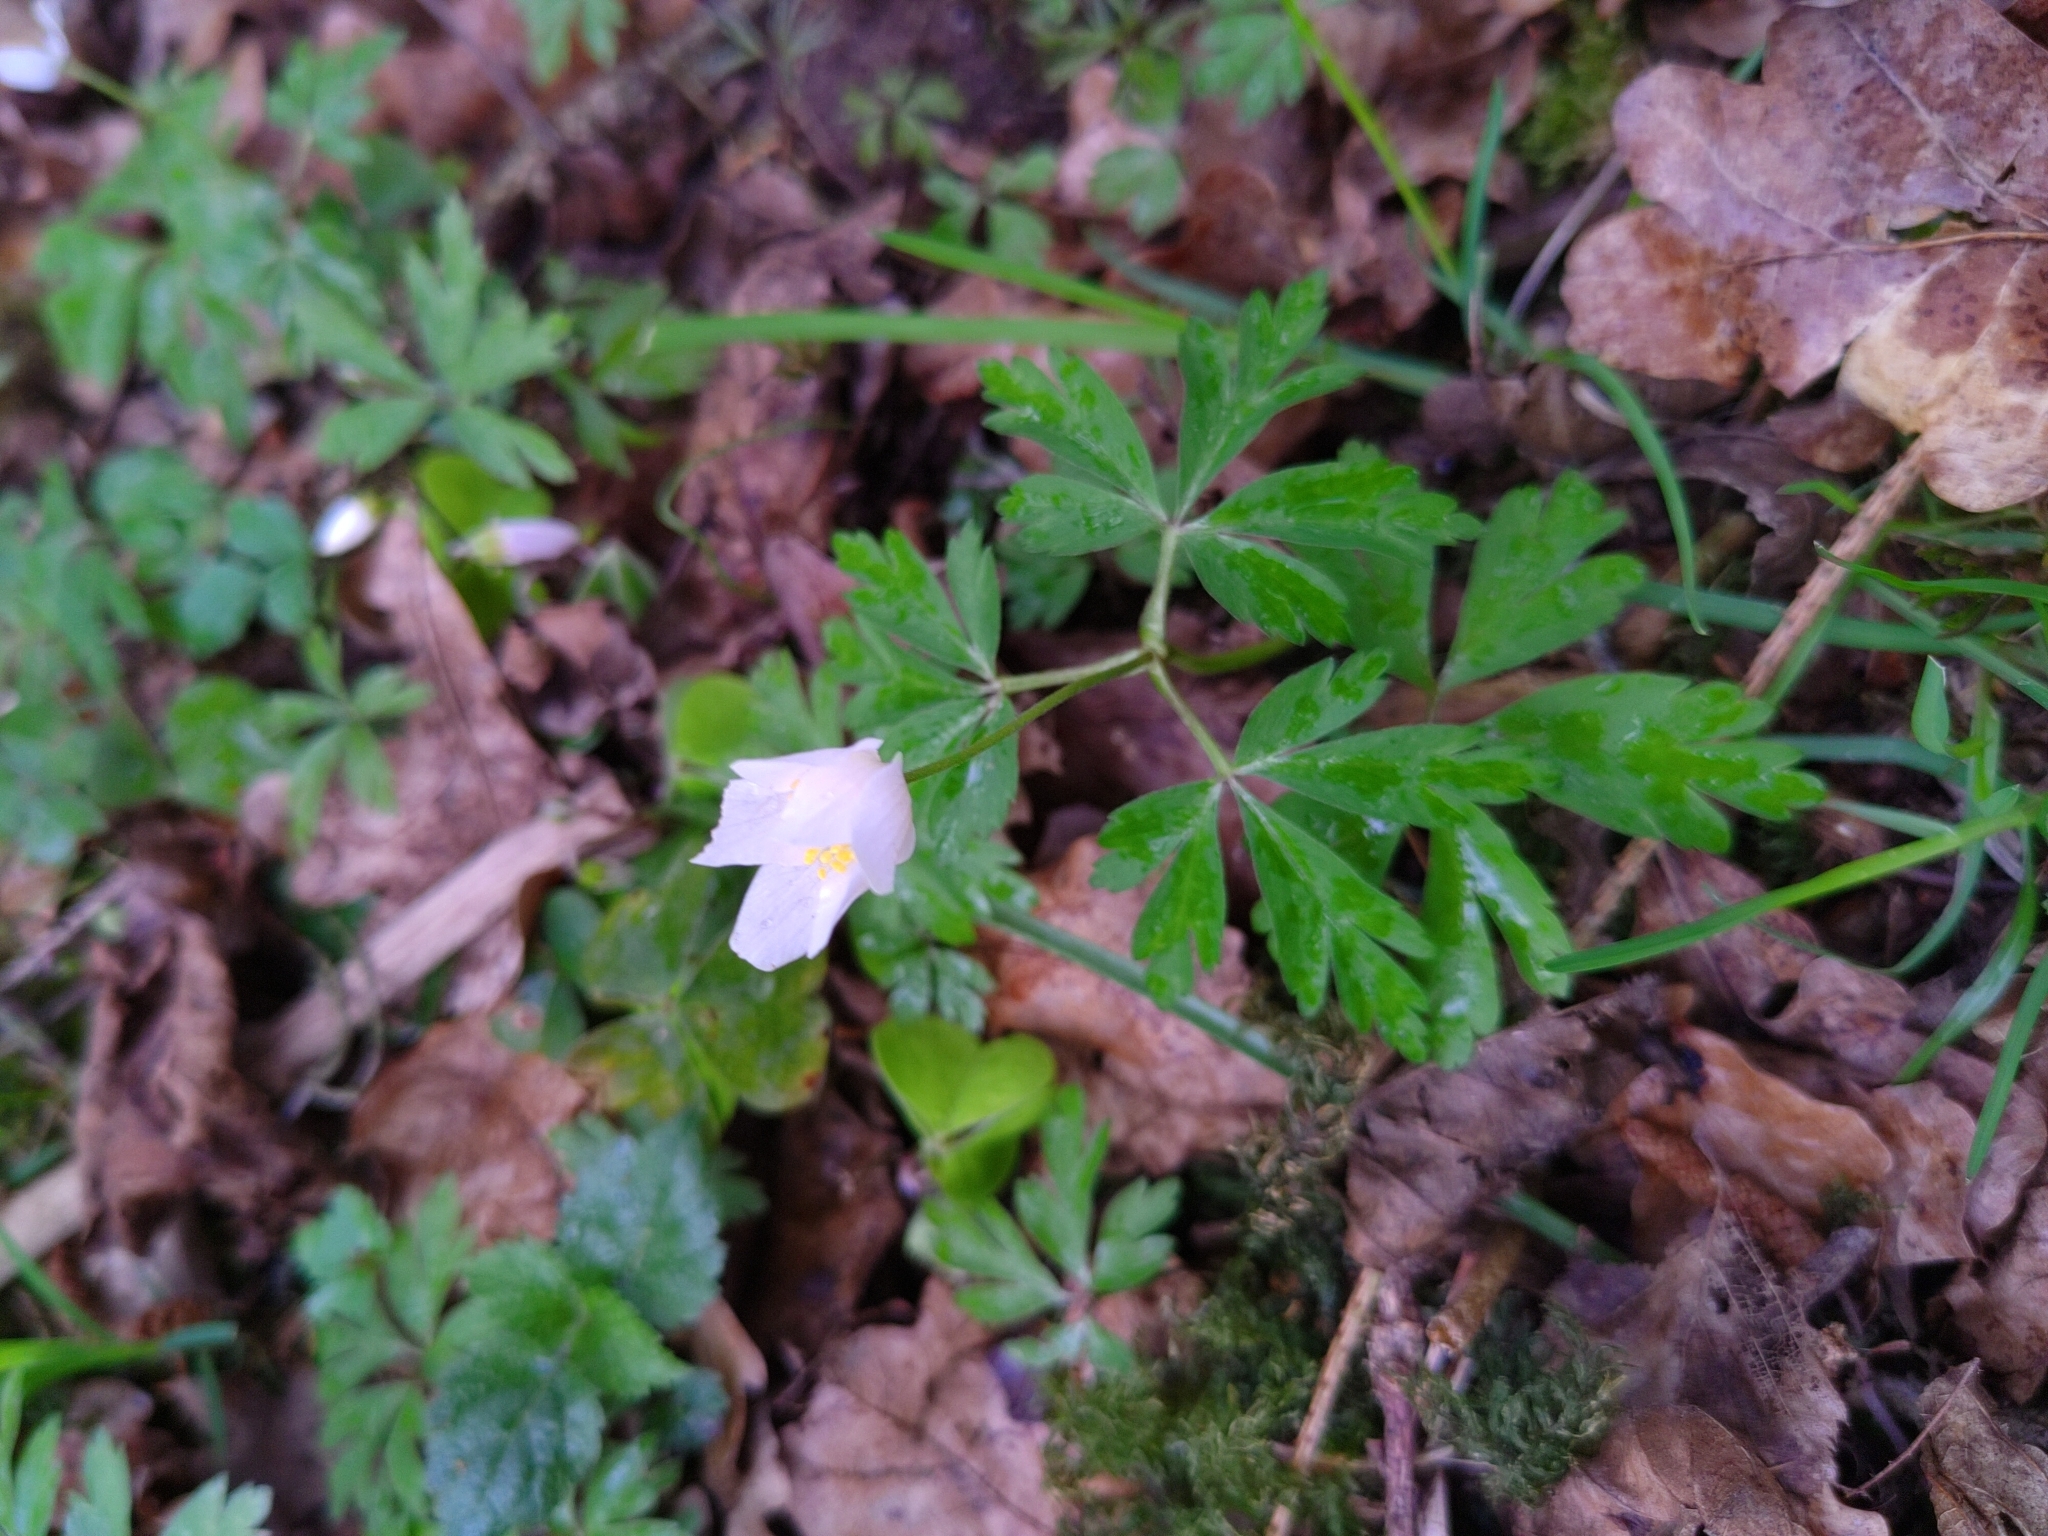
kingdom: Plantae
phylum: Tracheophyta
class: Magnoliopsida
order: Ranunculales
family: Ranunculaceae
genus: Anemone
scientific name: Anemone nemorosa
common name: Wood anemone
